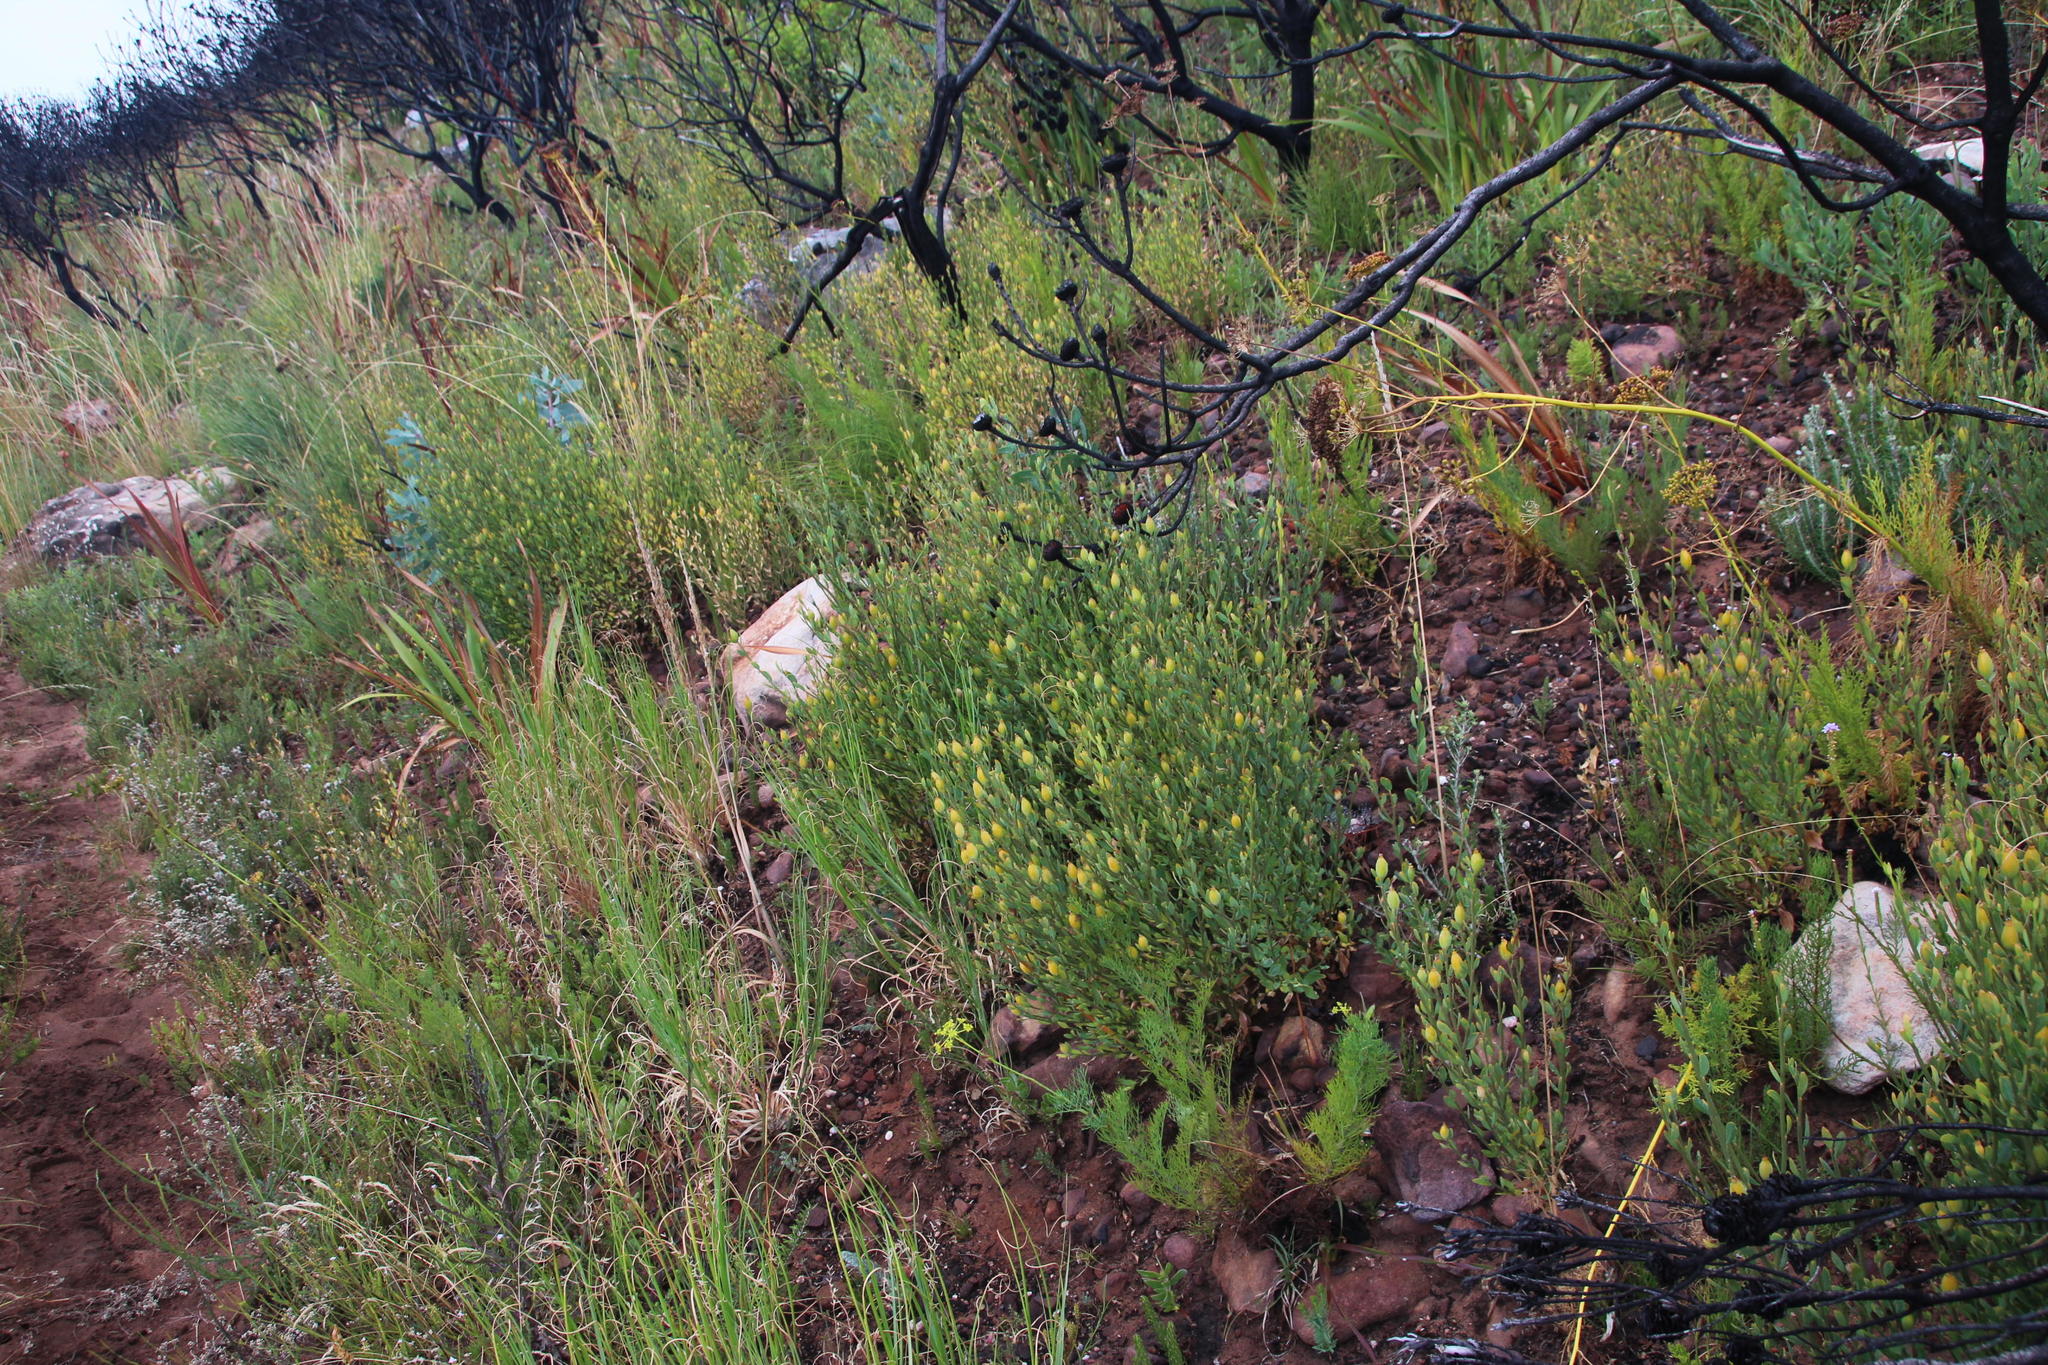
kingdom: Plantae
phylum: Tracheophyta
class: Magnoliopsida
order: Solanales
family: Montiniaceae
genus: Montinia
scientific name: Montinia caryophyllacea
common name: Wild clove-bush
